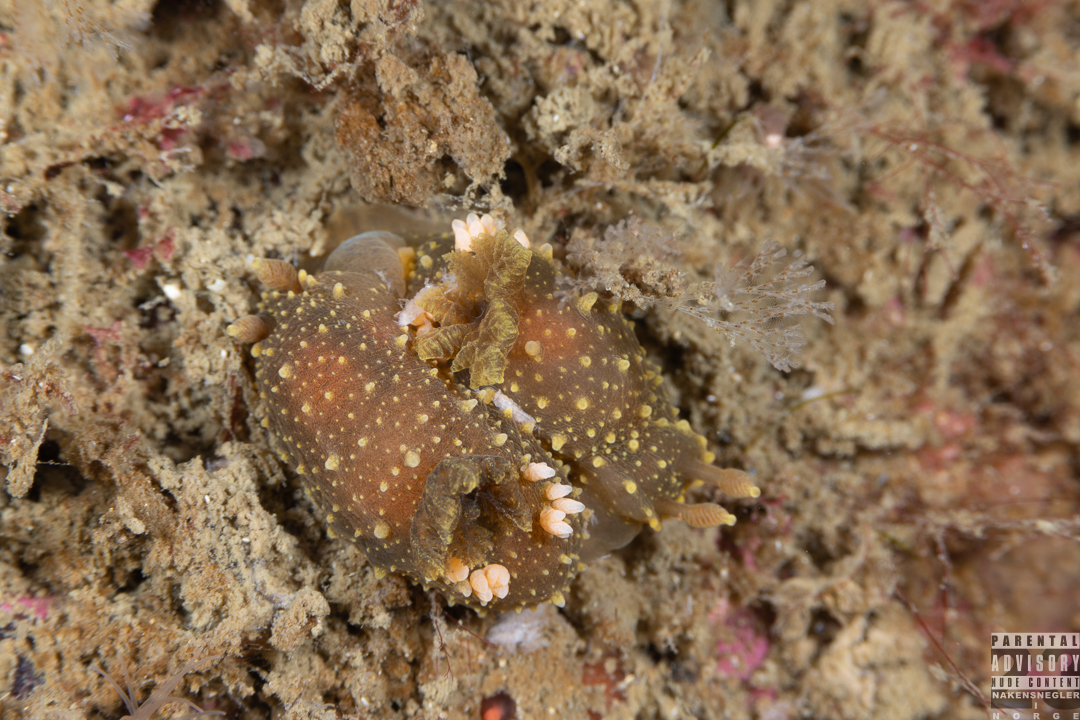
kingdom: Animalia
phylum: Mollusca
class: Gastropoda
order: Nudibranchia
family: Polyceridae
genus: Palio
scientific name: Palio dubia
